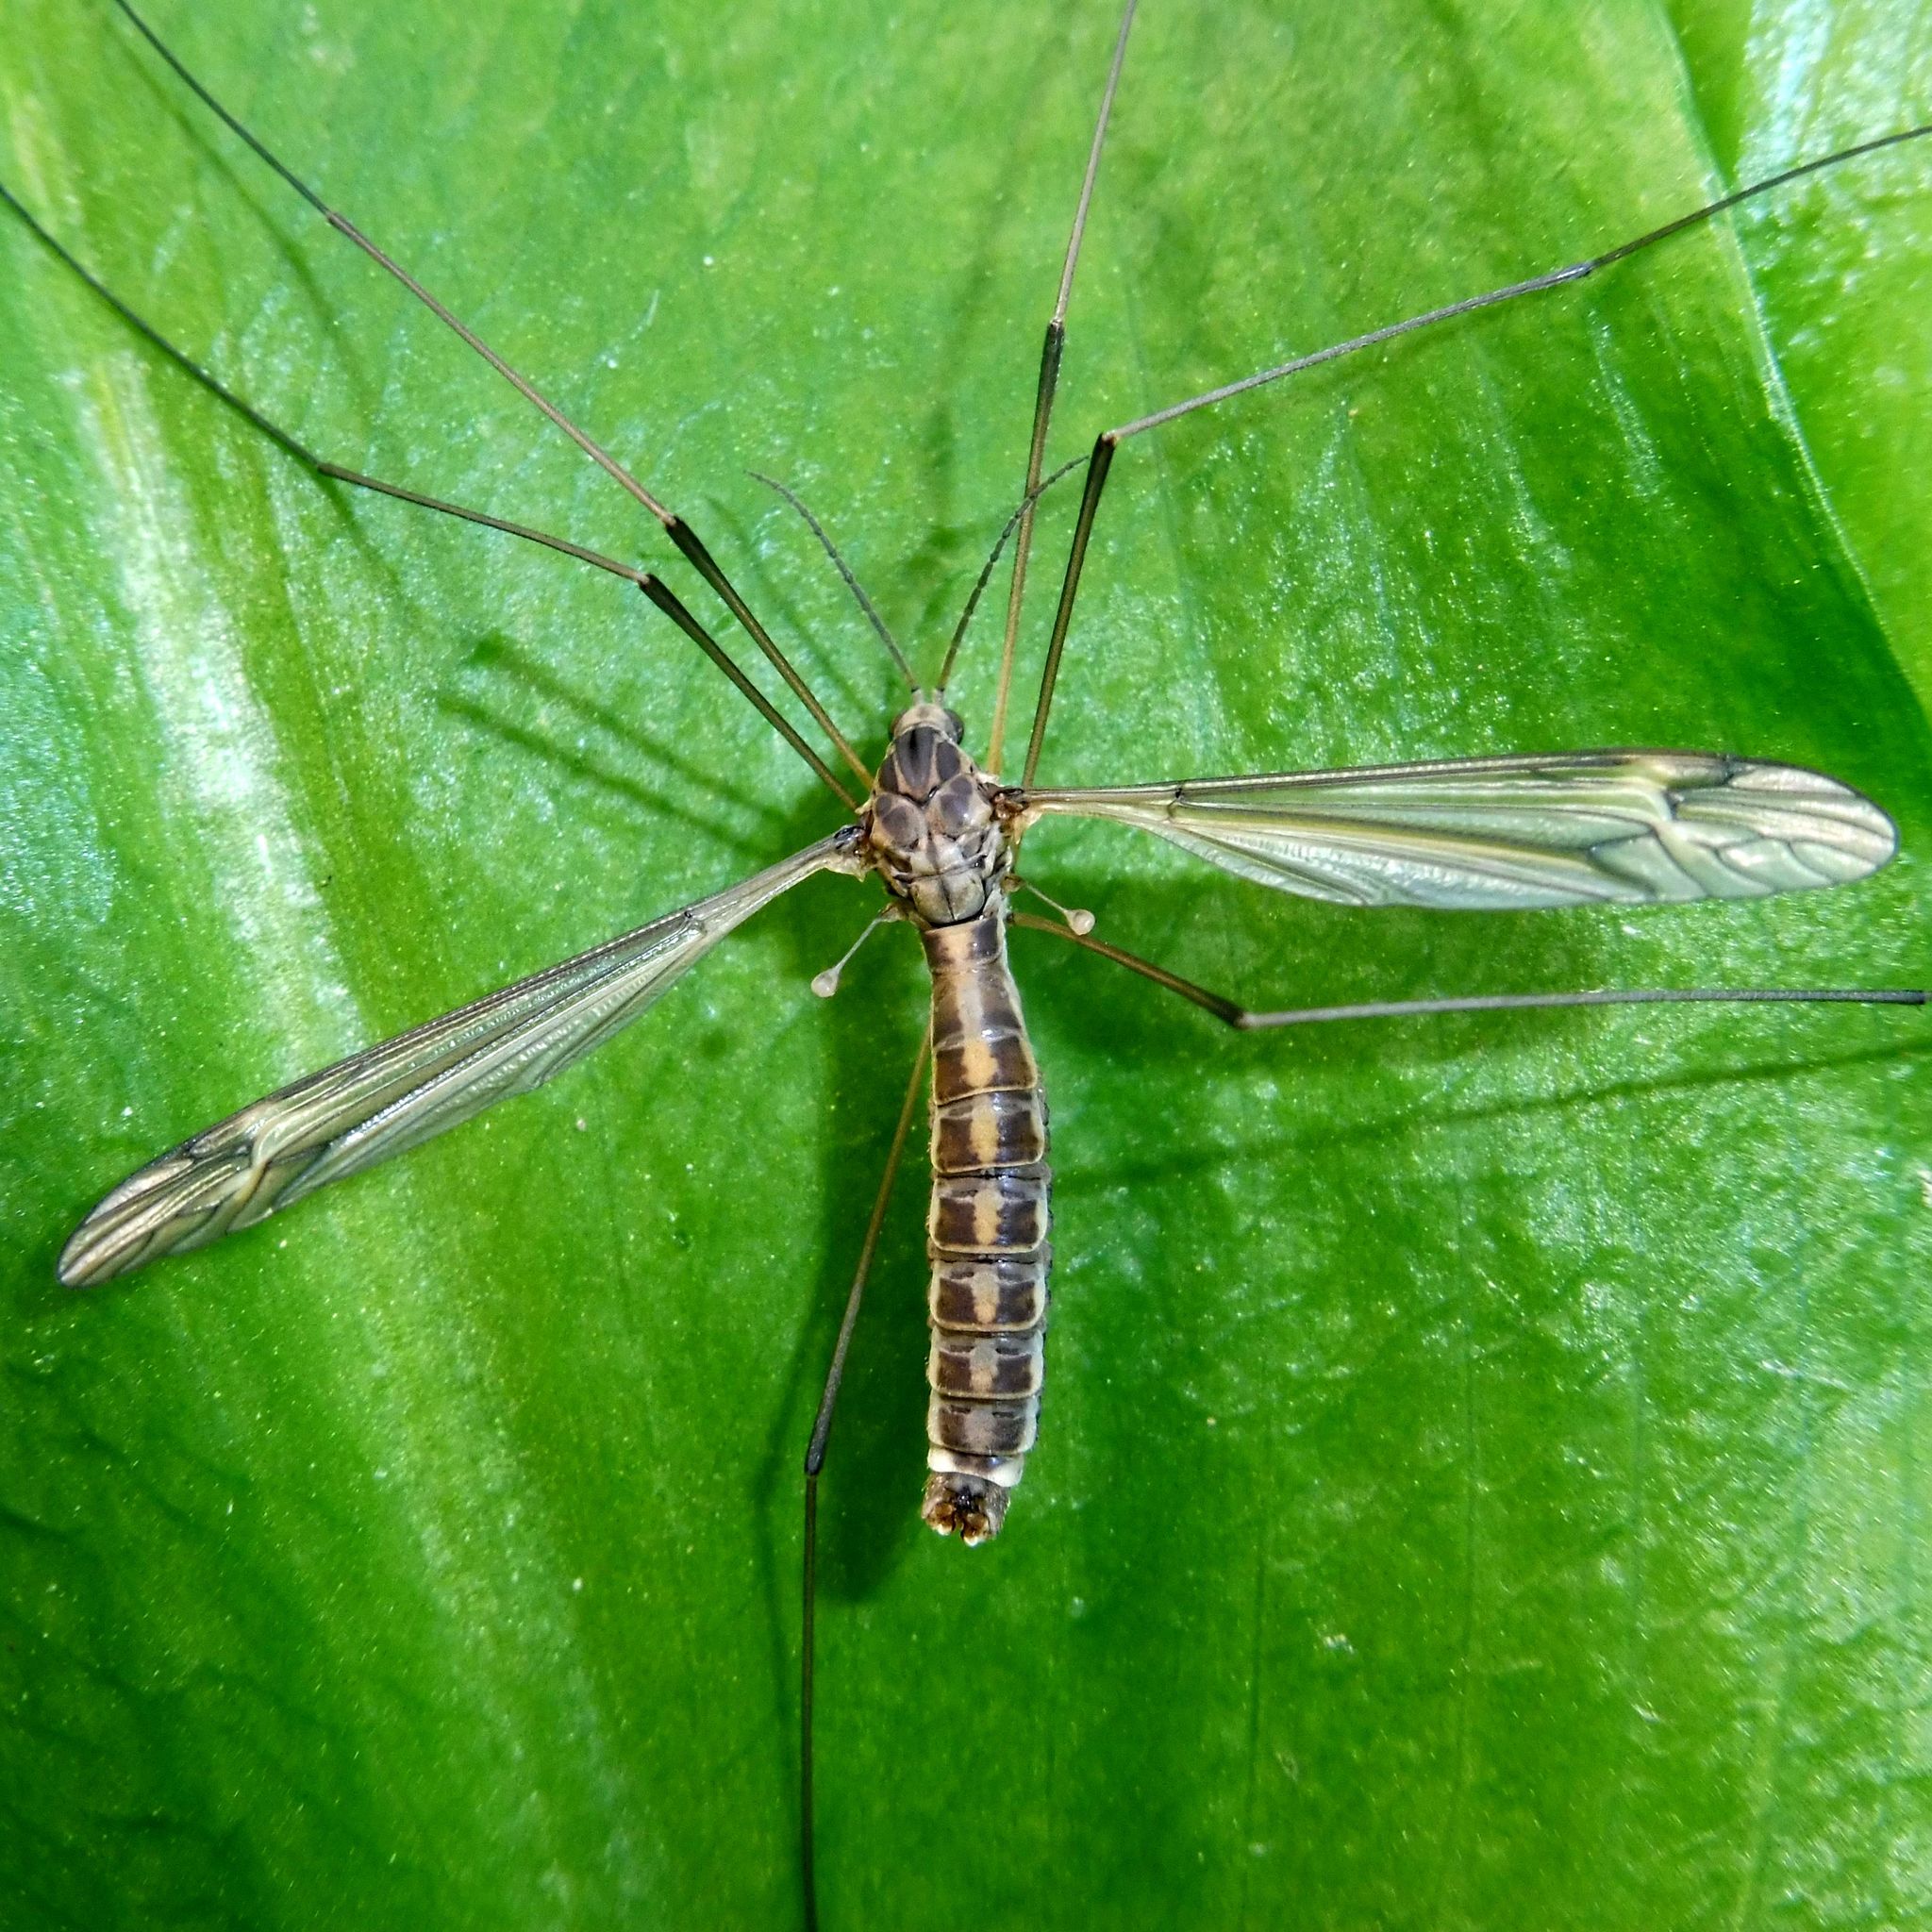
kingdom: Animalia
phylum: Arthropoda
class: Insecta
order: Diptera
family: Tipulidae
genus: Tipula
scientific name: Tipula lateralis
